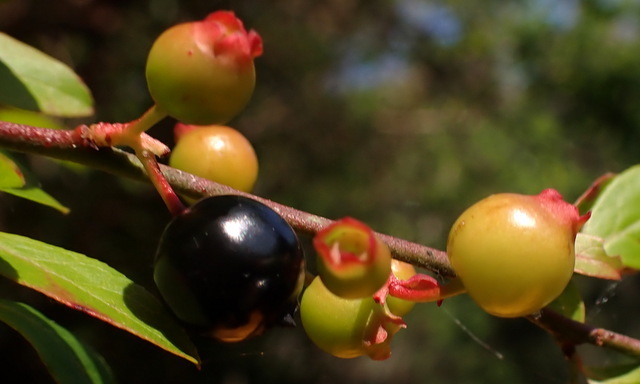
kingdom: Plantae
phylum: Tracheophyta
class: Magnoliopsida
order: Ericales
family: Ericaceae
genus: Vaccinium
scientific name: Vaccinium corymbosum
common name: Blueberry
